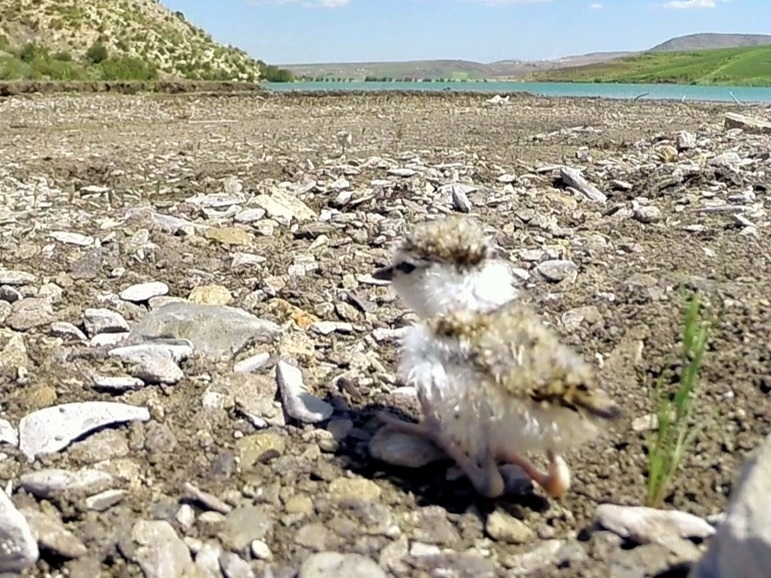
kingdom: Animalia
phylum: Chordata
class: Aves
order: Charadriiformes
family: Charadriidae
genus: Charadrius
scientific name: Charadrius dubius
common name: Little ringed plover
